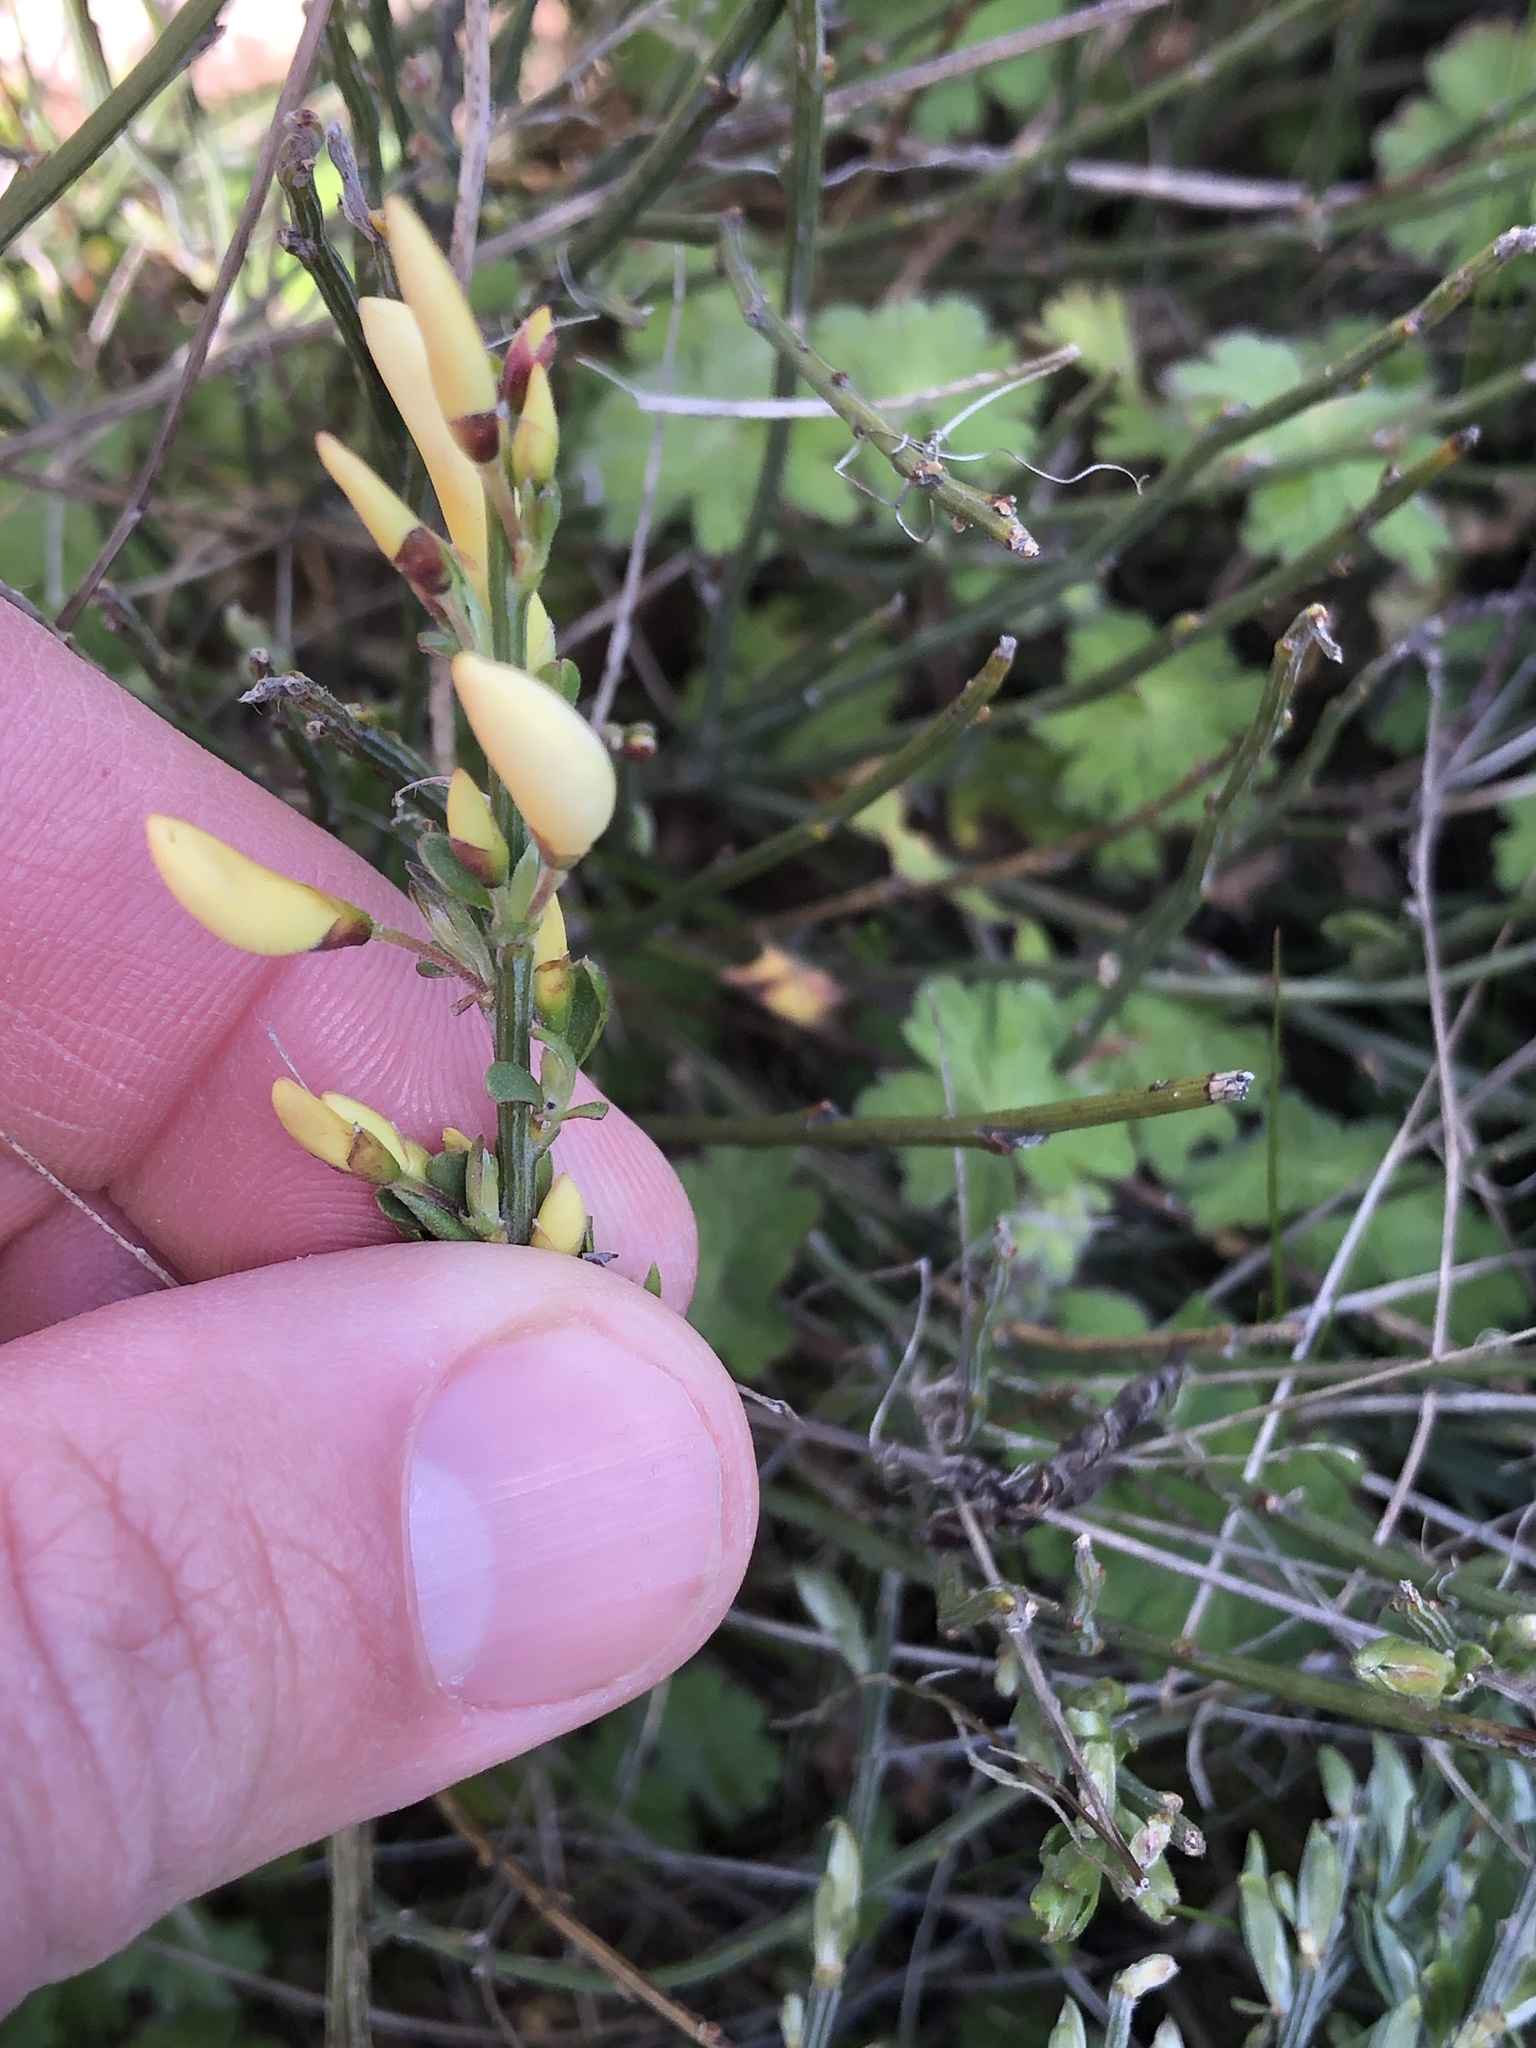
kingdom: Plantae
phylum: Tracheophyta
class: Magnoliopsida
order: Fabales
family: Fabaceae
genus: Cytisus
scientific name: Cytisus multiflorus
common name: White broom
